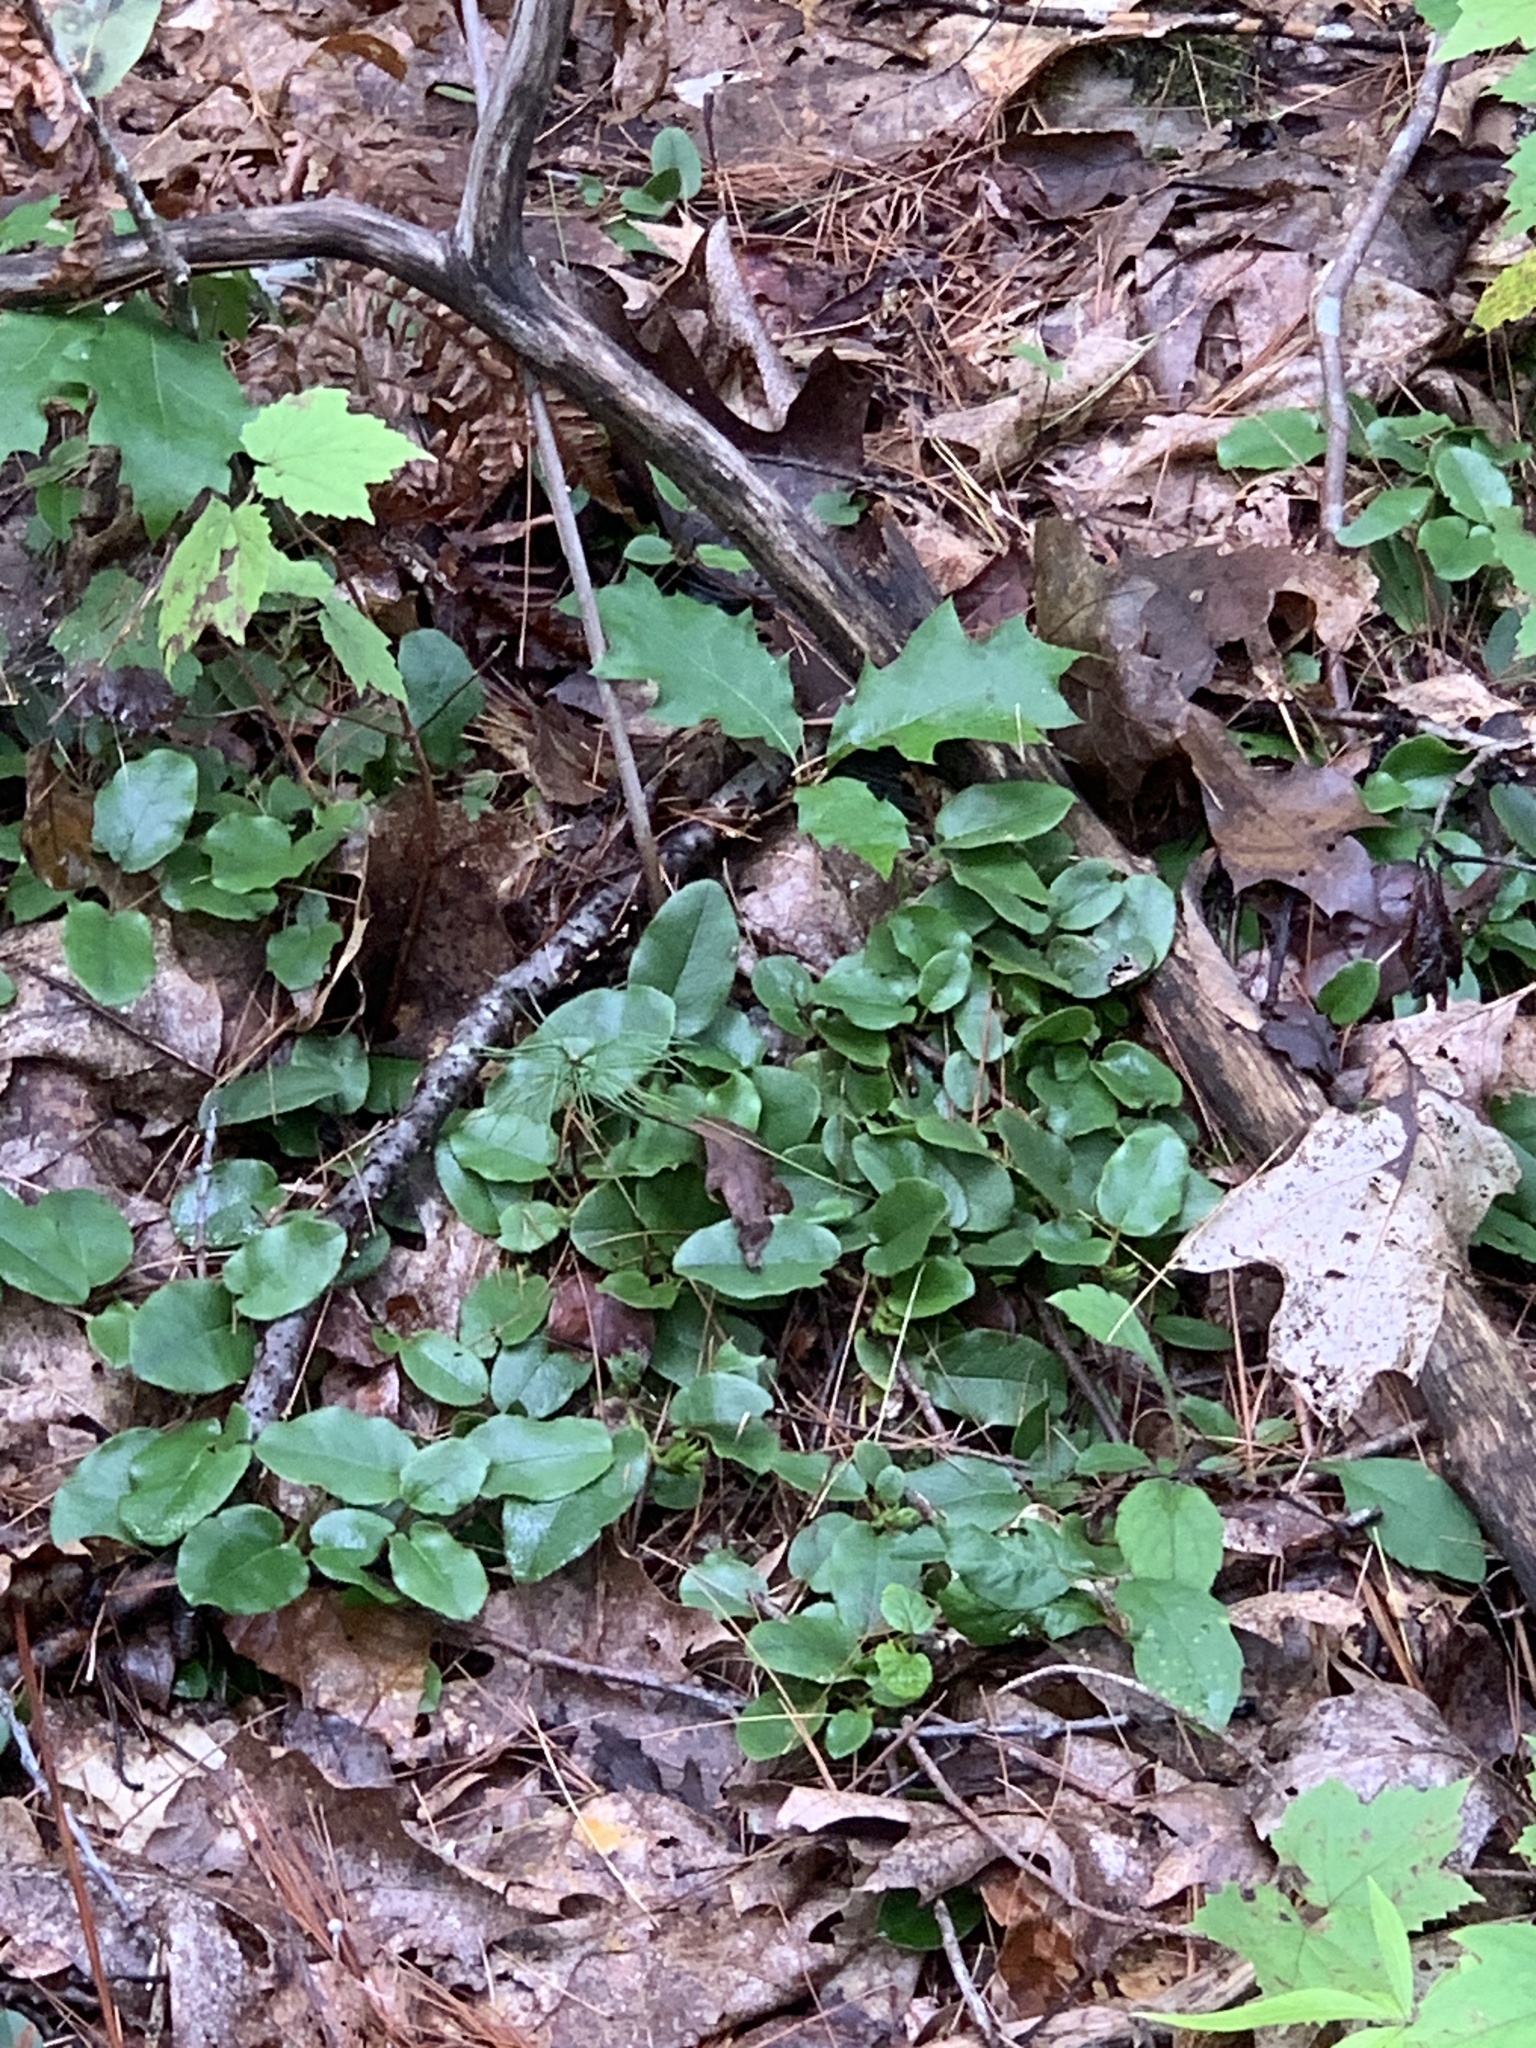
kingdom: Plantae
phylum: Tracheophyta
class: Magnoliopsida
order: Ericales
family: Ericaceae
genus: Epigaea
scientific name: Epigaea repens
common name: Gravelroot
